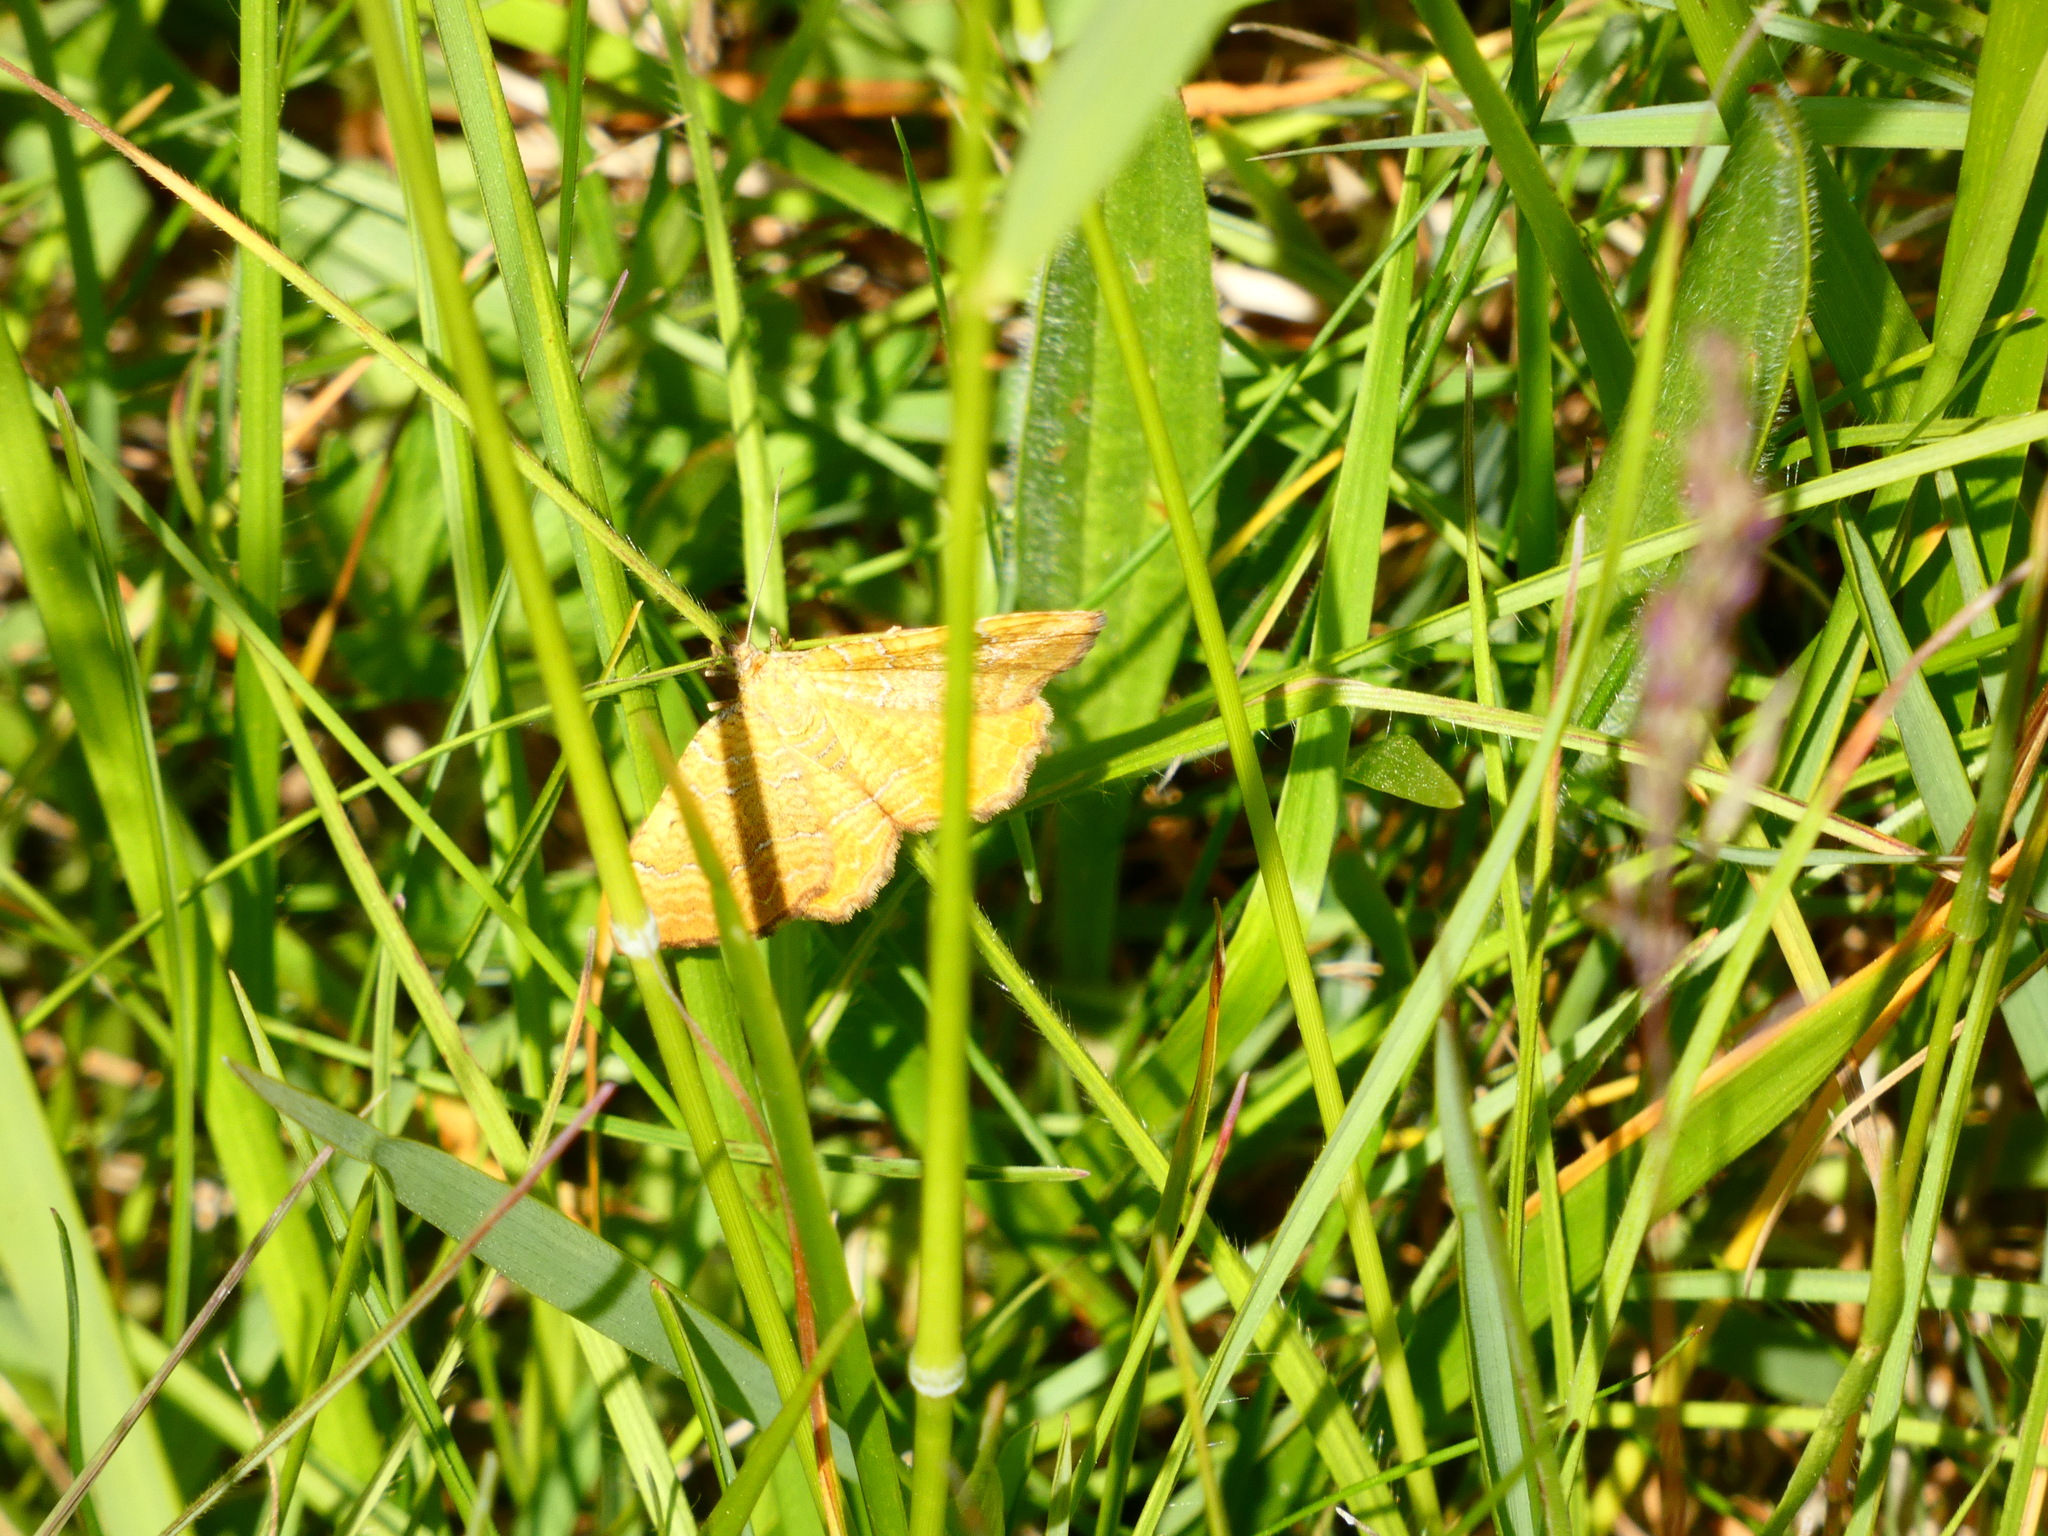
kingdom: Animalia
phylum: Arthropoda
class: Insecta
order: Lepidoptera
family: Geometridae
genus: Camptogramma
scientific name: Camptogramma bilineata
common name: Yellow shell
